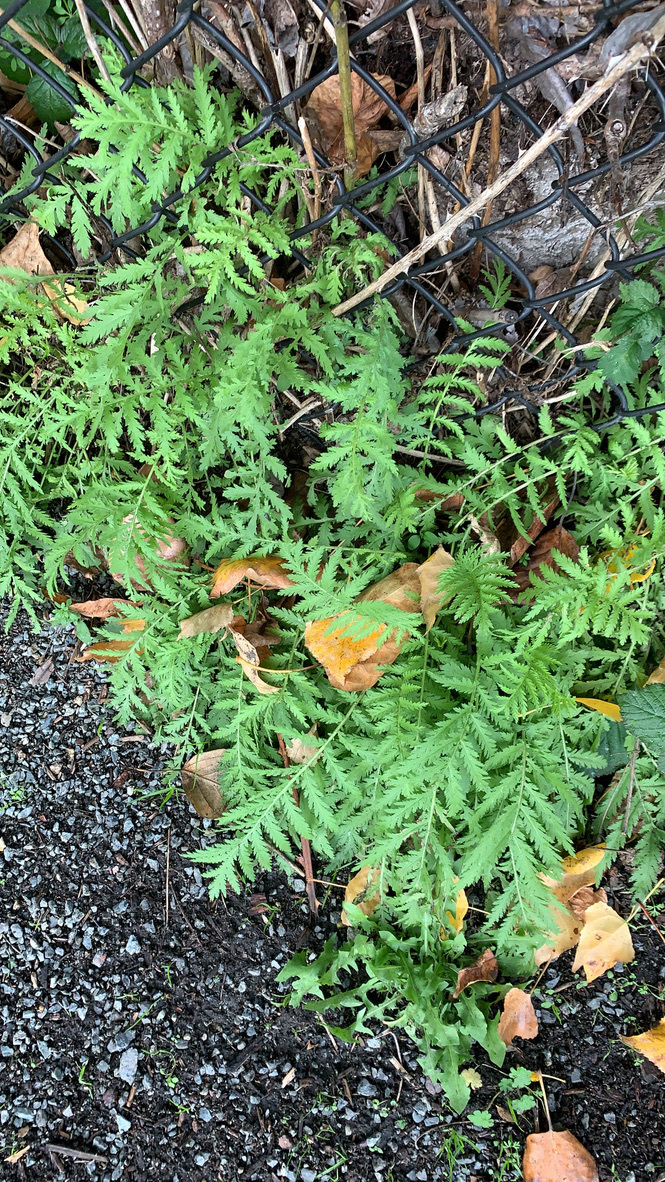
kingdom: Plantae
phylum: Tracheophyta
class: Magnoliopsida
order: Asterales
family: Asteraceae
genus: Tanacetum
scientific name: Tanacetum vulgare
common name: Common tansy
